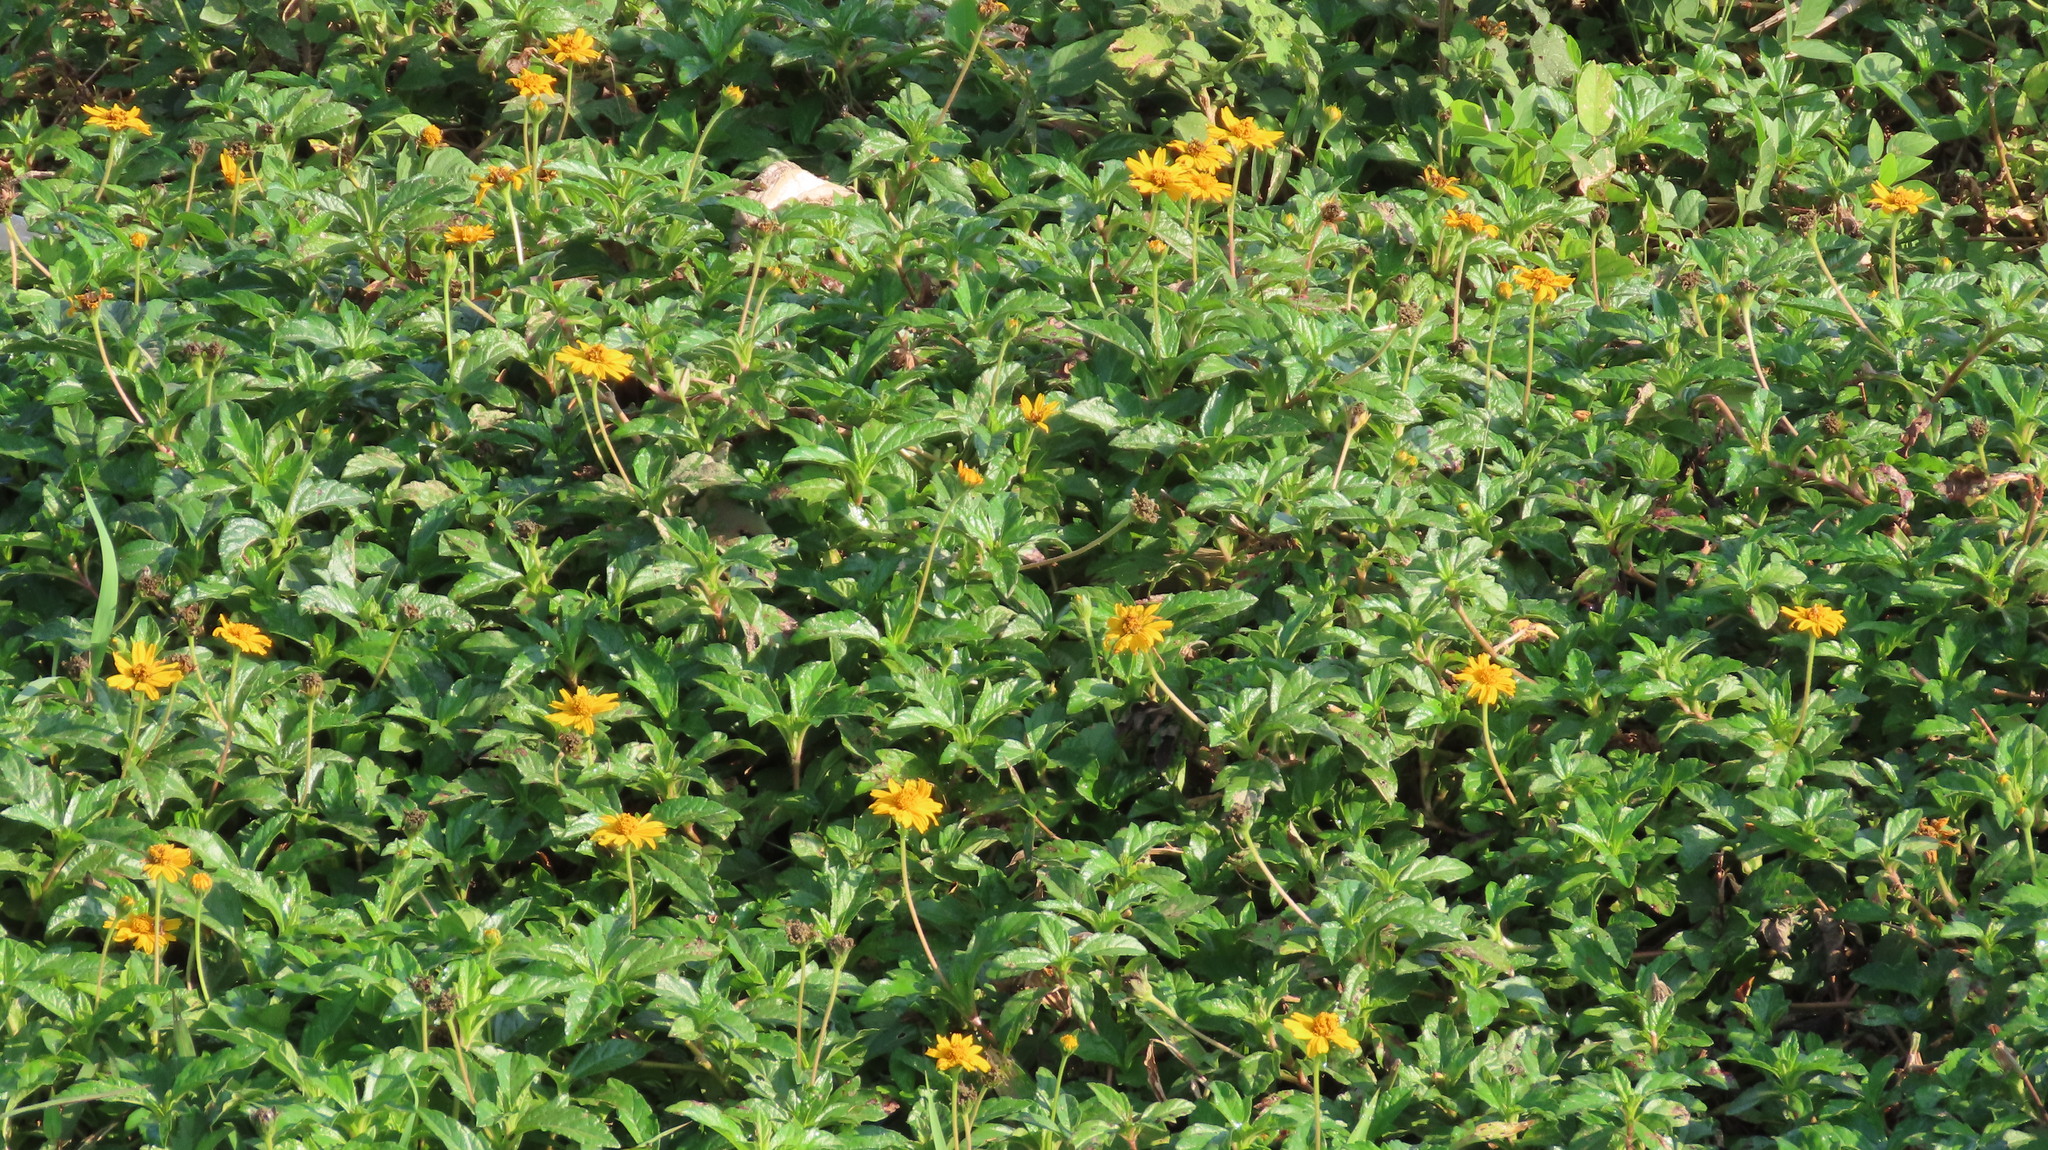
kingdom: Plantae
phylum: Tracheophyta
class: Magnoliopsida
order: Asterales
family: Asteraceae
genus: Sphagneticola
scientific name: Sphagneticola trilobata
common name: Bay biscayne creeping-oxeye
